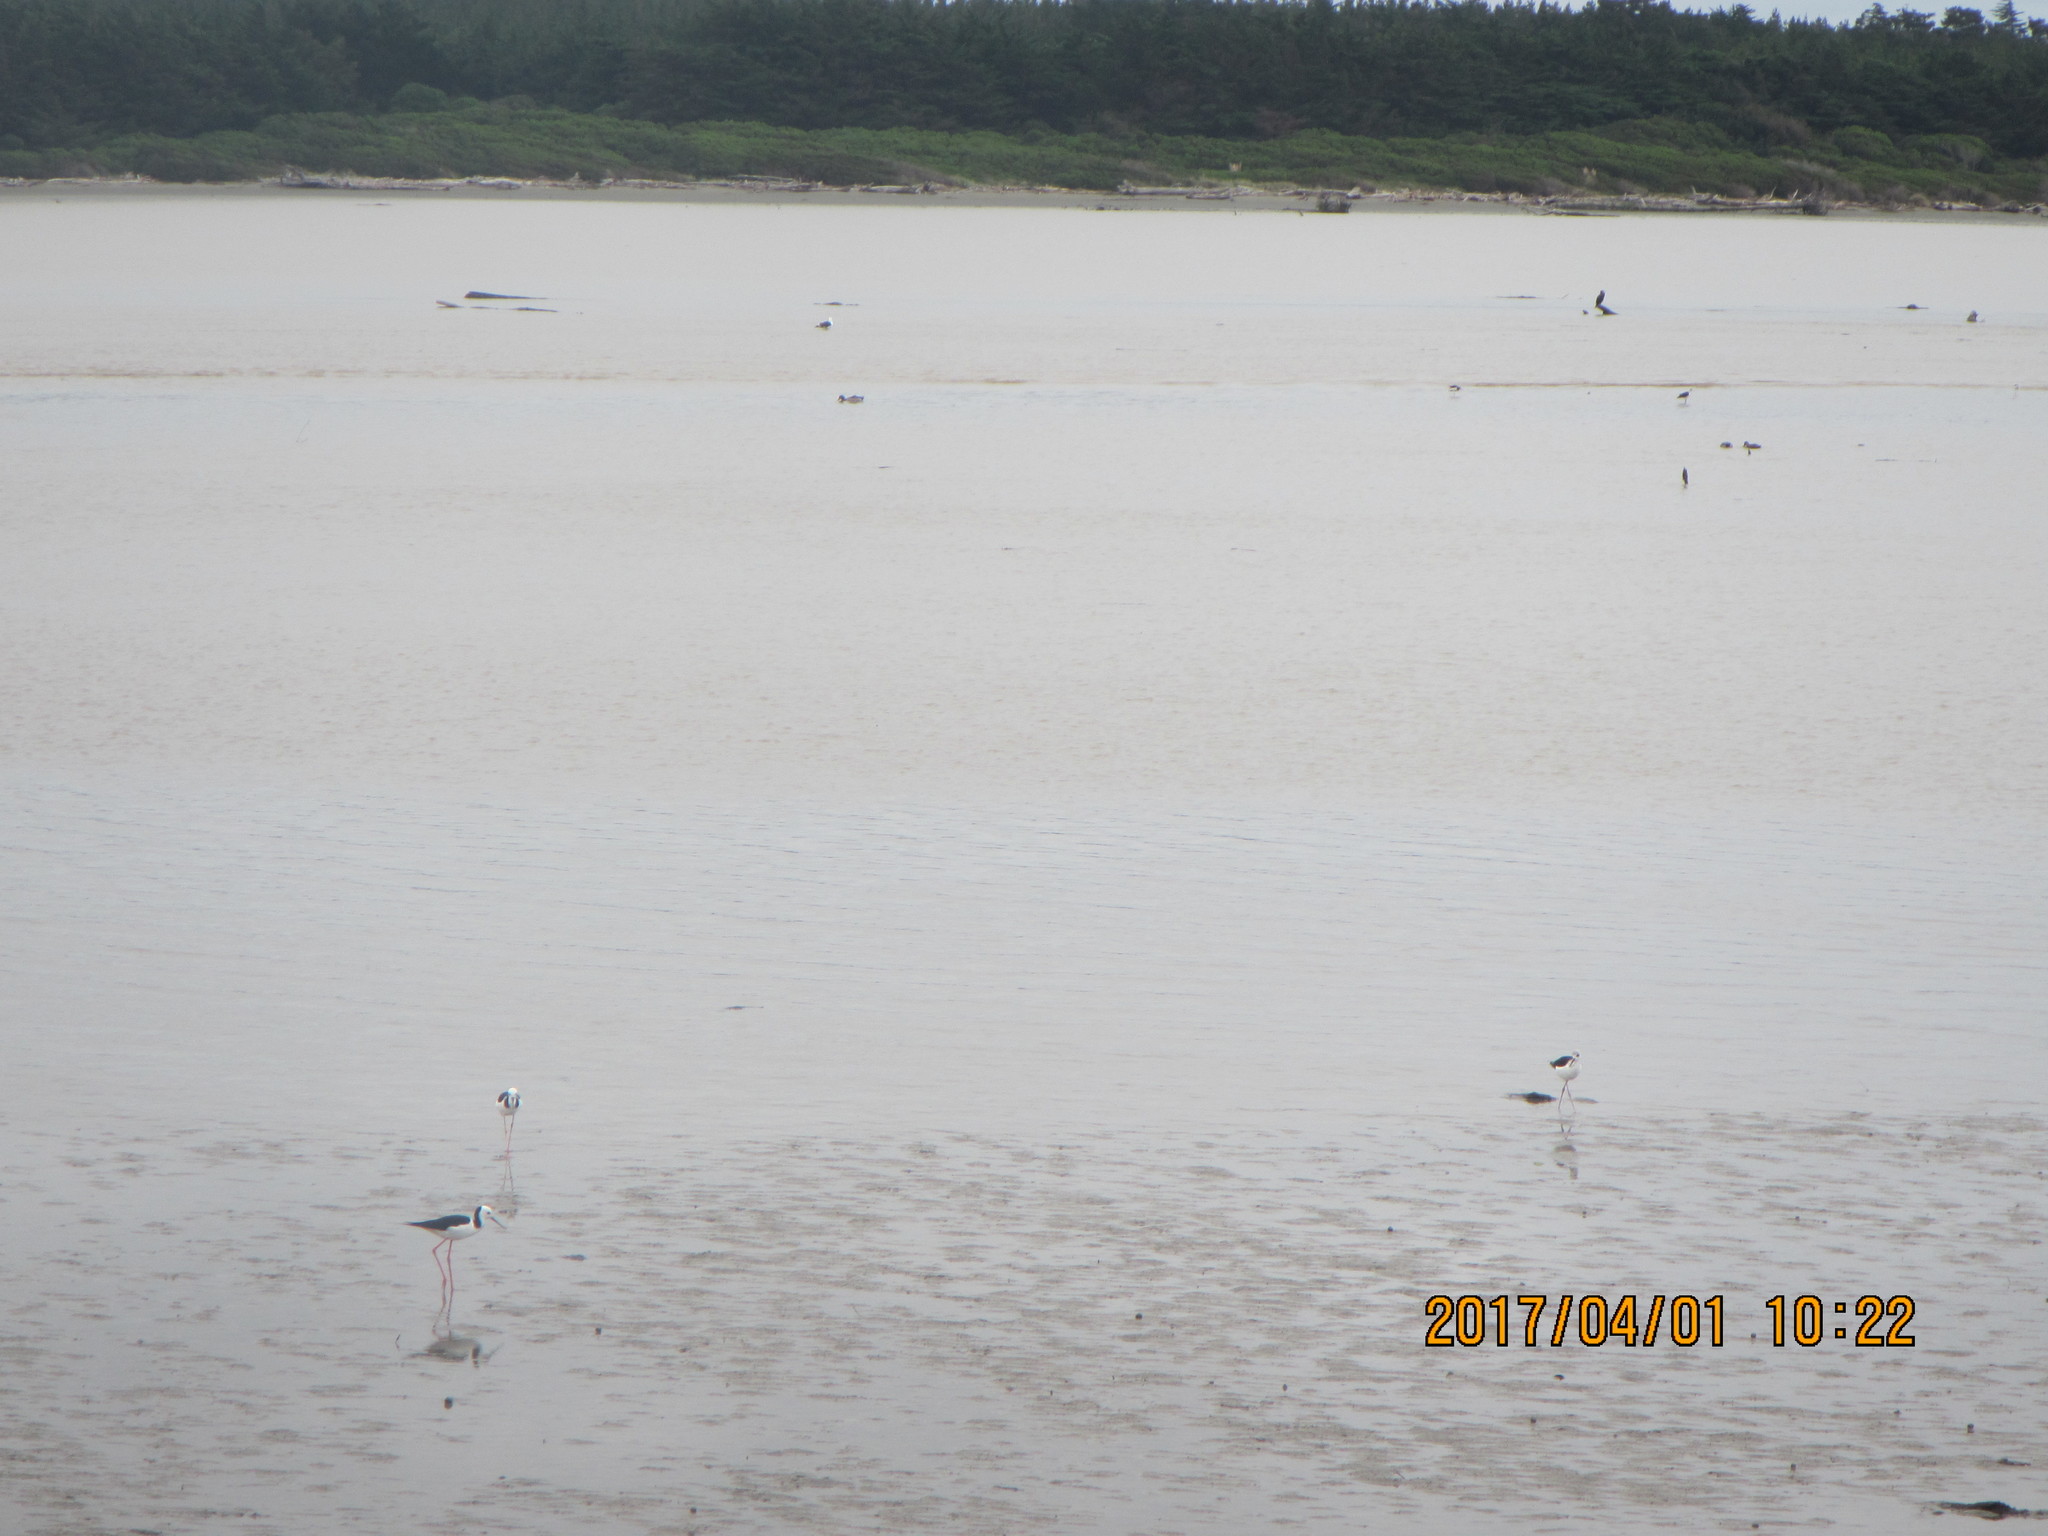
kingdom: Animalia
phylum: Chordata
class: Aves
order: Charadriiformes
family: Recurvirostridae
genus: Himantopus
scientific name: Himantopus leucocephalus
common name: White-headed stilt
